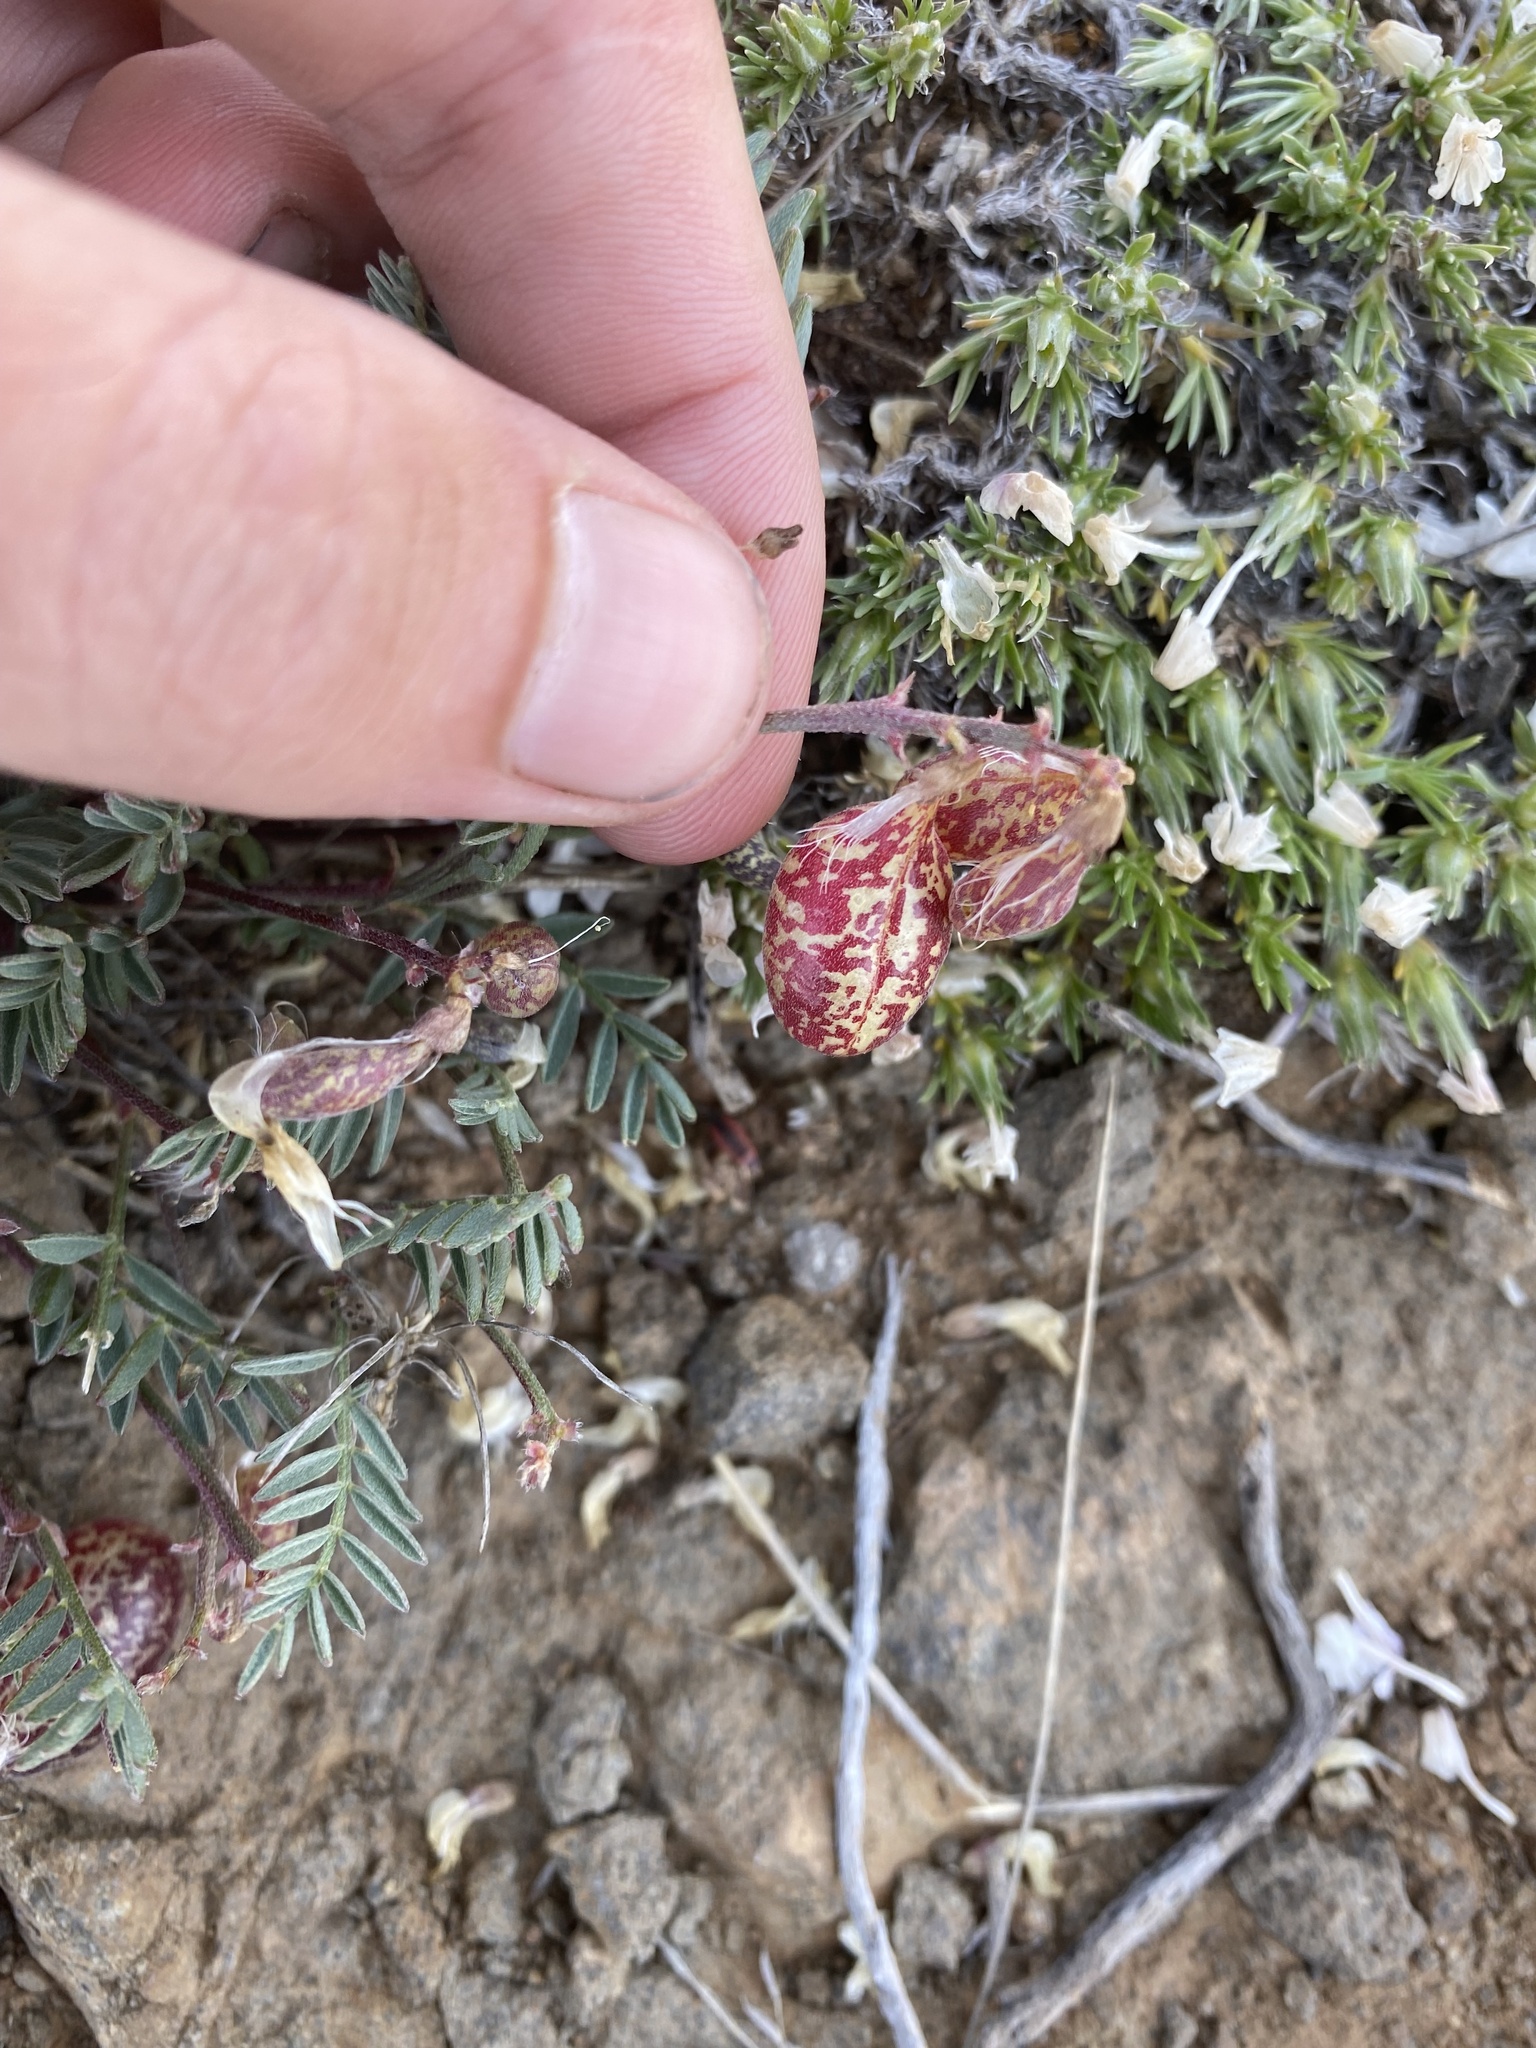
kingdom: Plantae
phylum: Tracheophyta
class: Magnoliopsida
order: Fabales
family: Fabaceae
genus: Astragalus
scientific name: Astragalus whitneyi
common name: Balloonpod milkvetch
